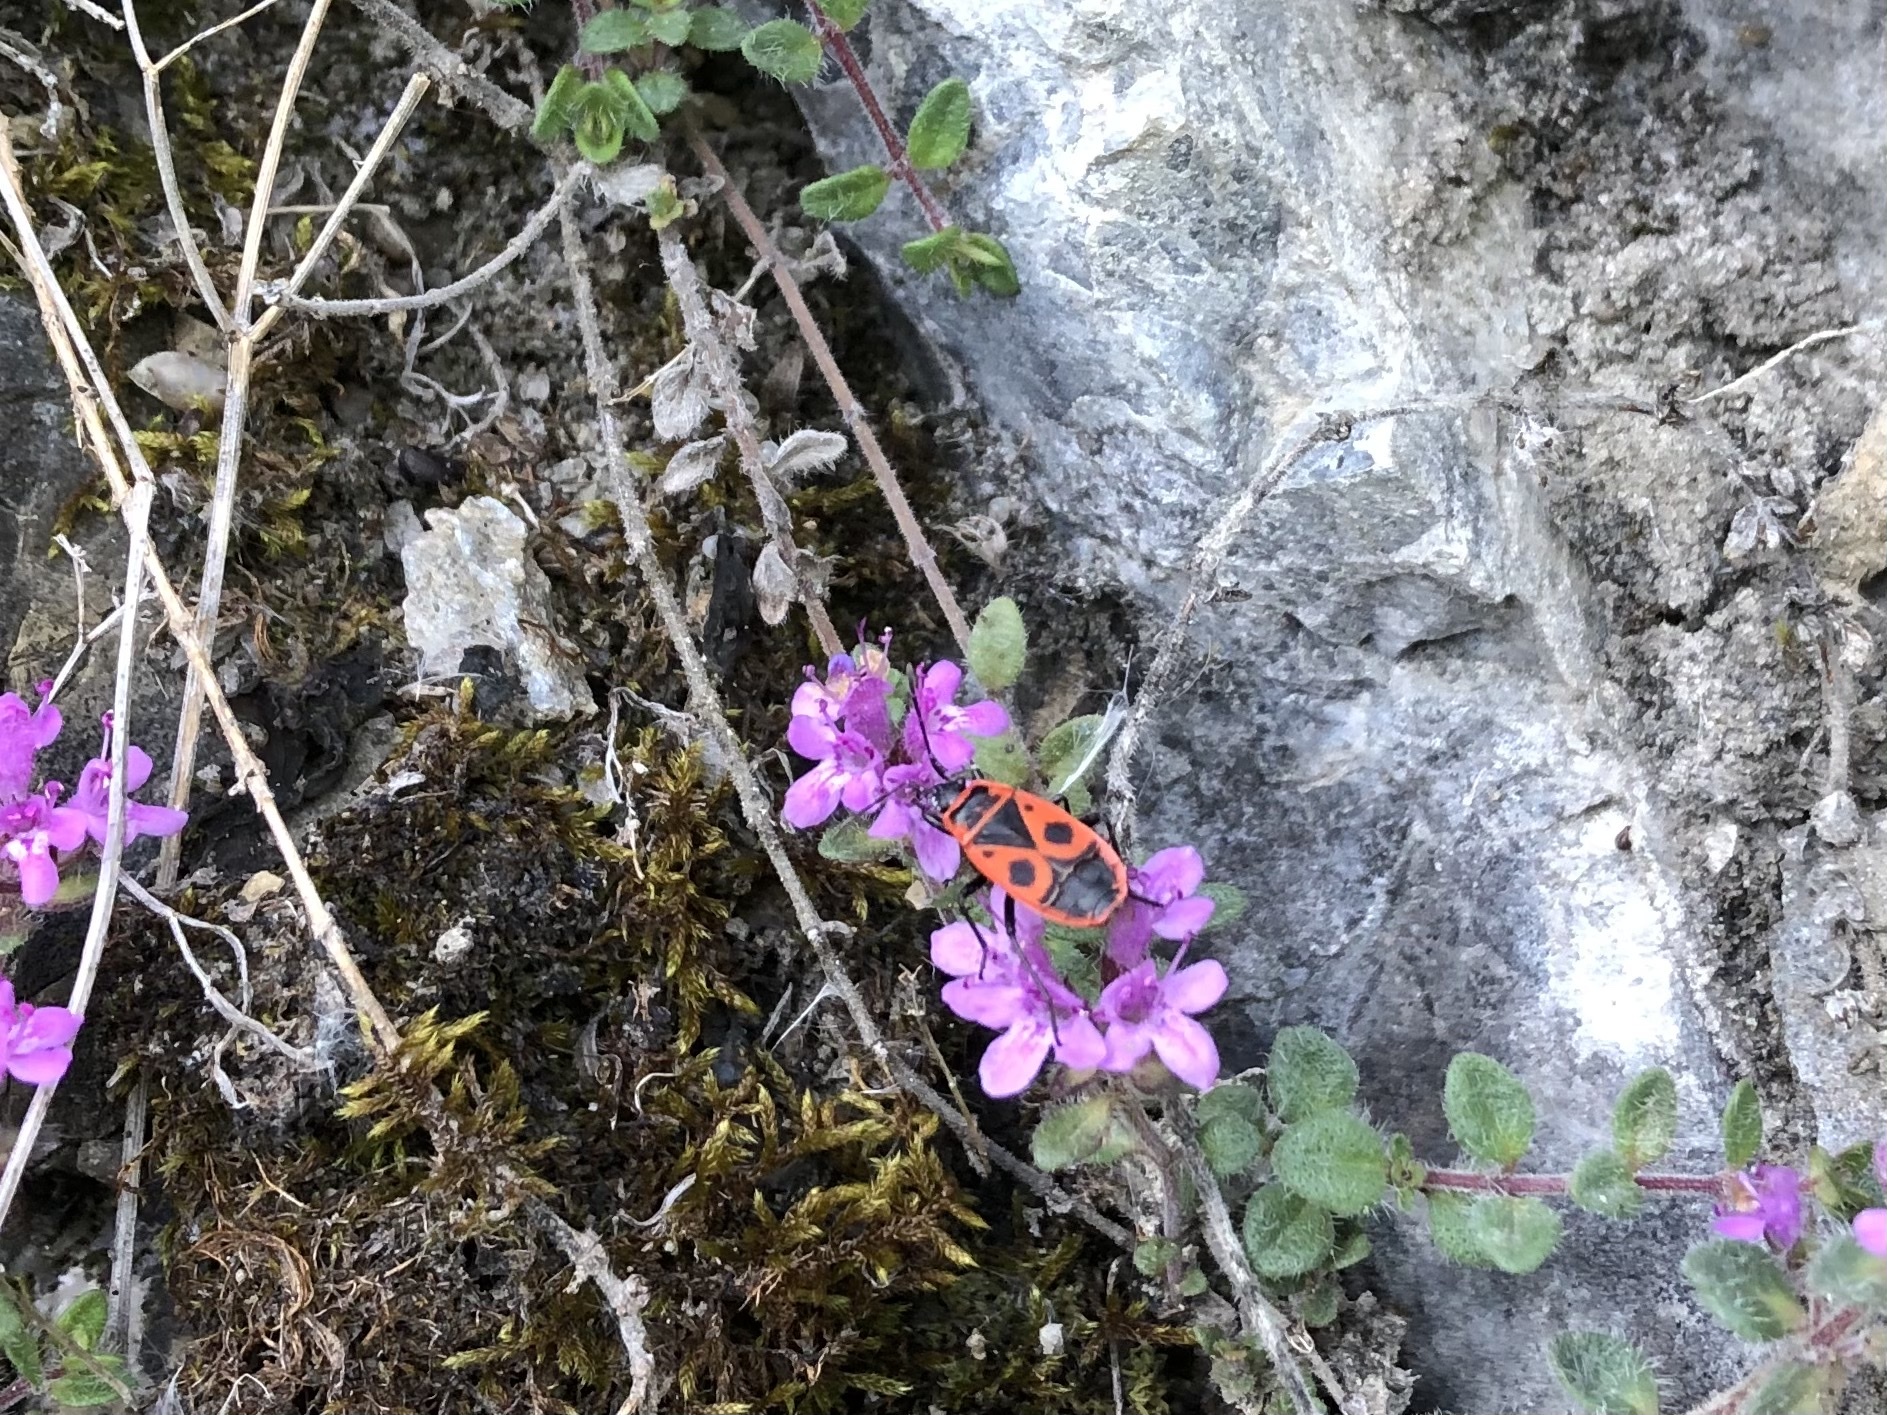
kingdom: Animalia
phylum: Arthropoda
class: Insecta
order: Hemiptera
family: Pyrrhocoridae
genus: Pyrrhocoris
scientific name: Pyrrhocoris apterus
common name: Firebug
